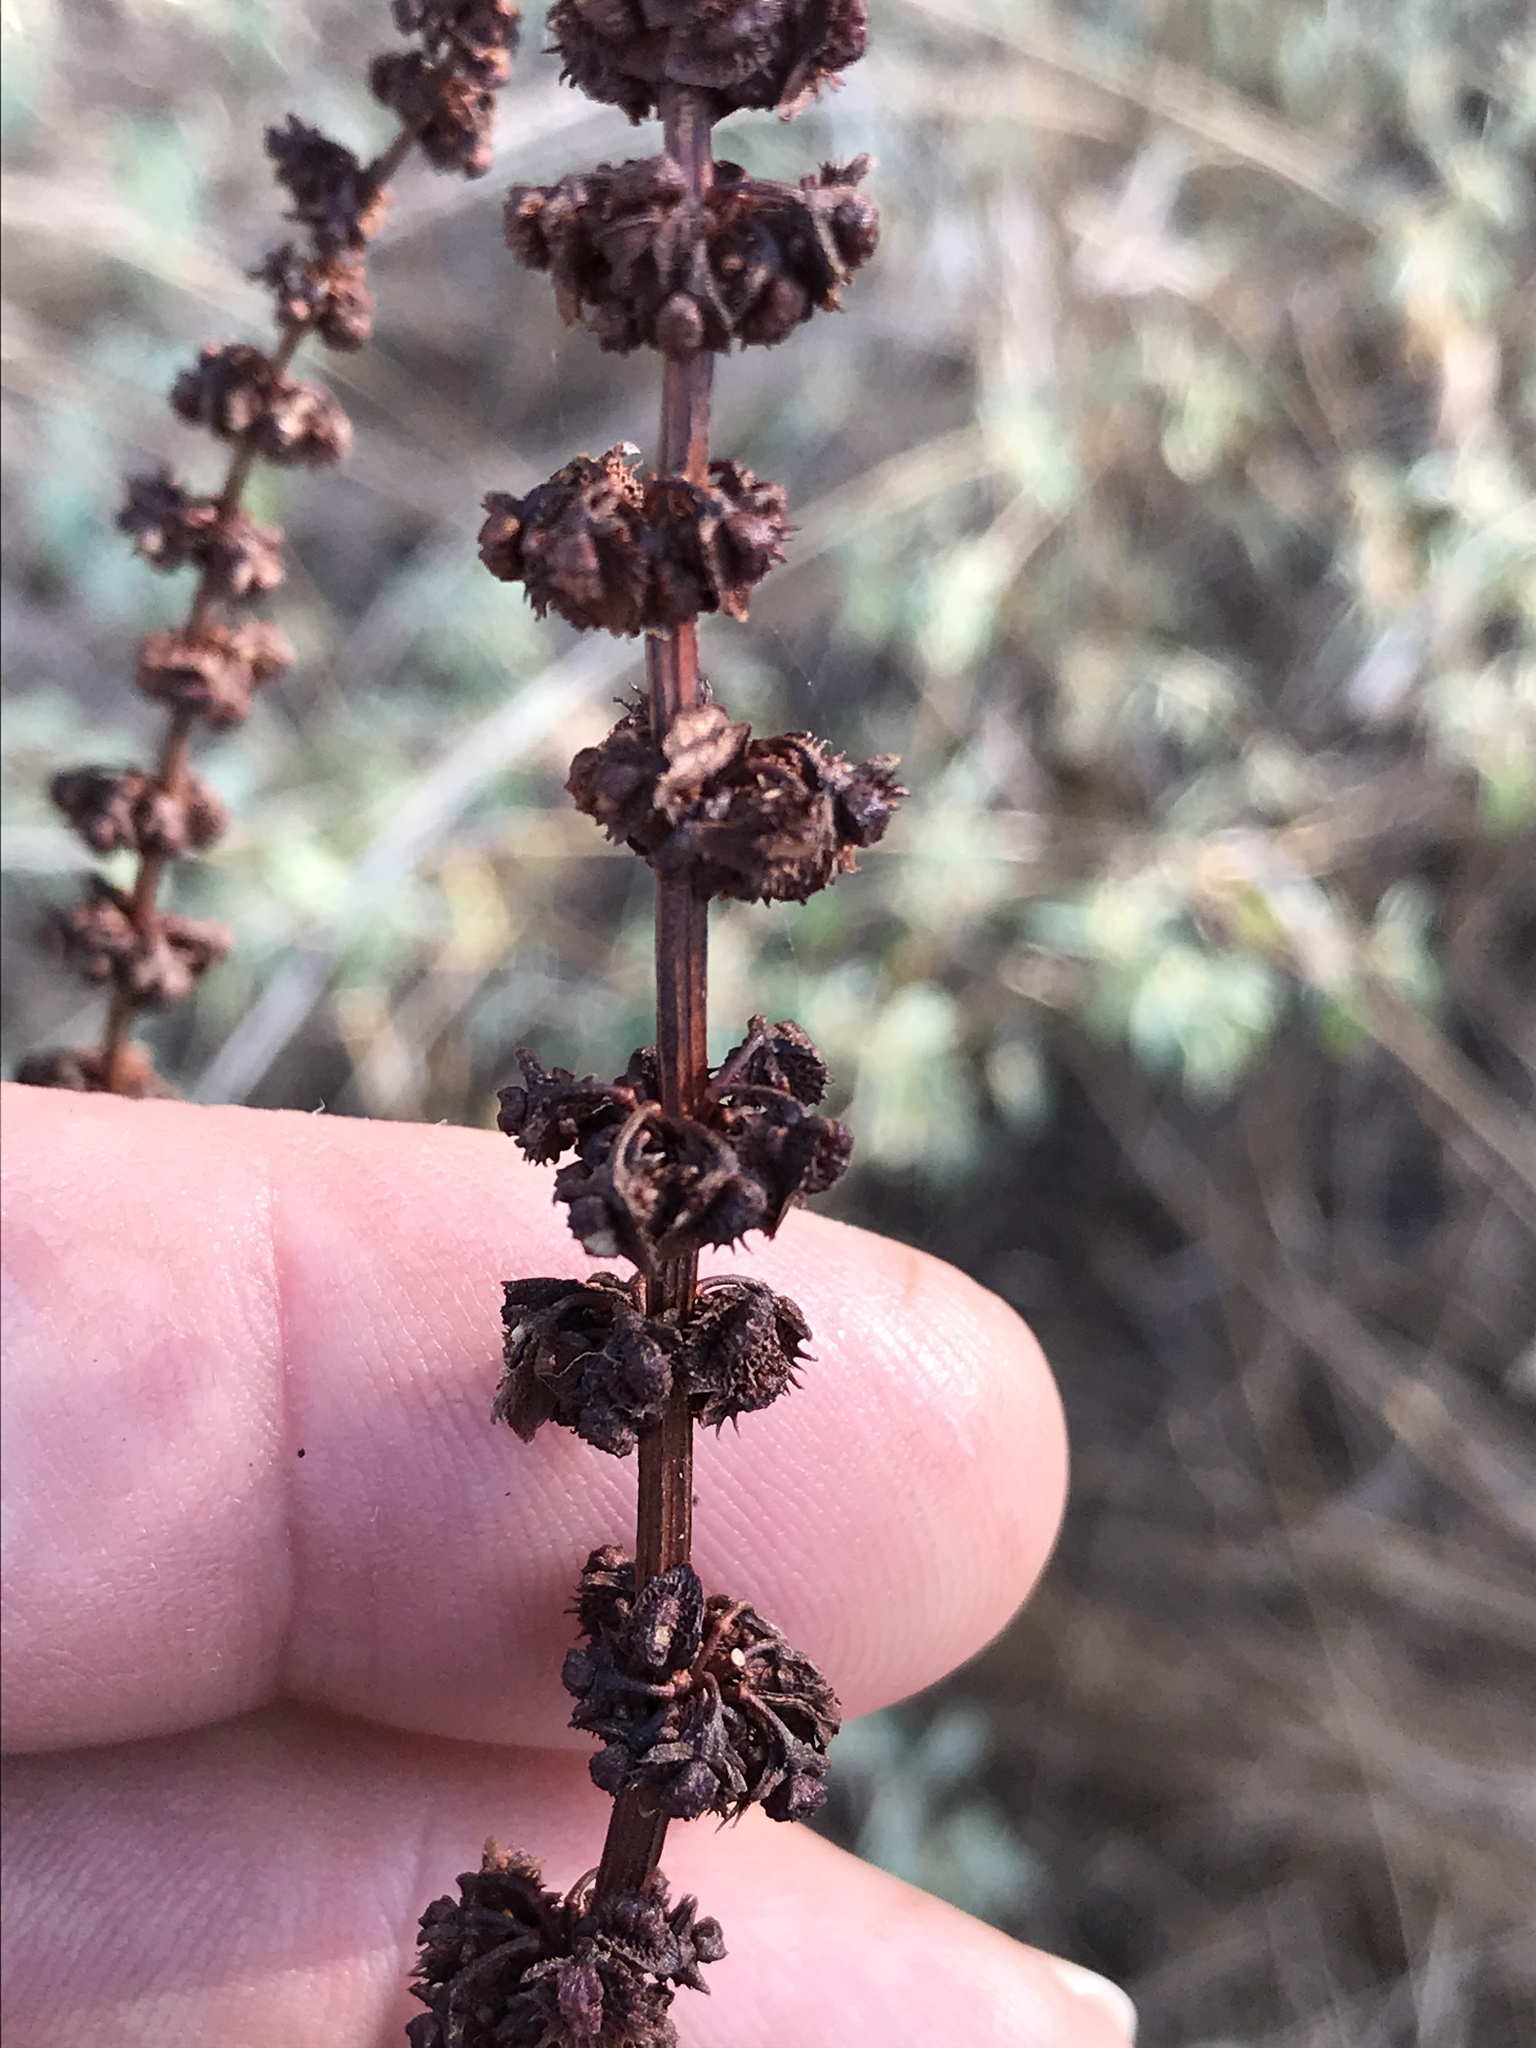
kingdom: Plantae
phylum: Tracheophyta
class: Magnoliopsida
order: Caryophyllales
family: Polygonaceae
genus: Rumex
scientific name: Rumex pulcher
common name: Fiddle dock
